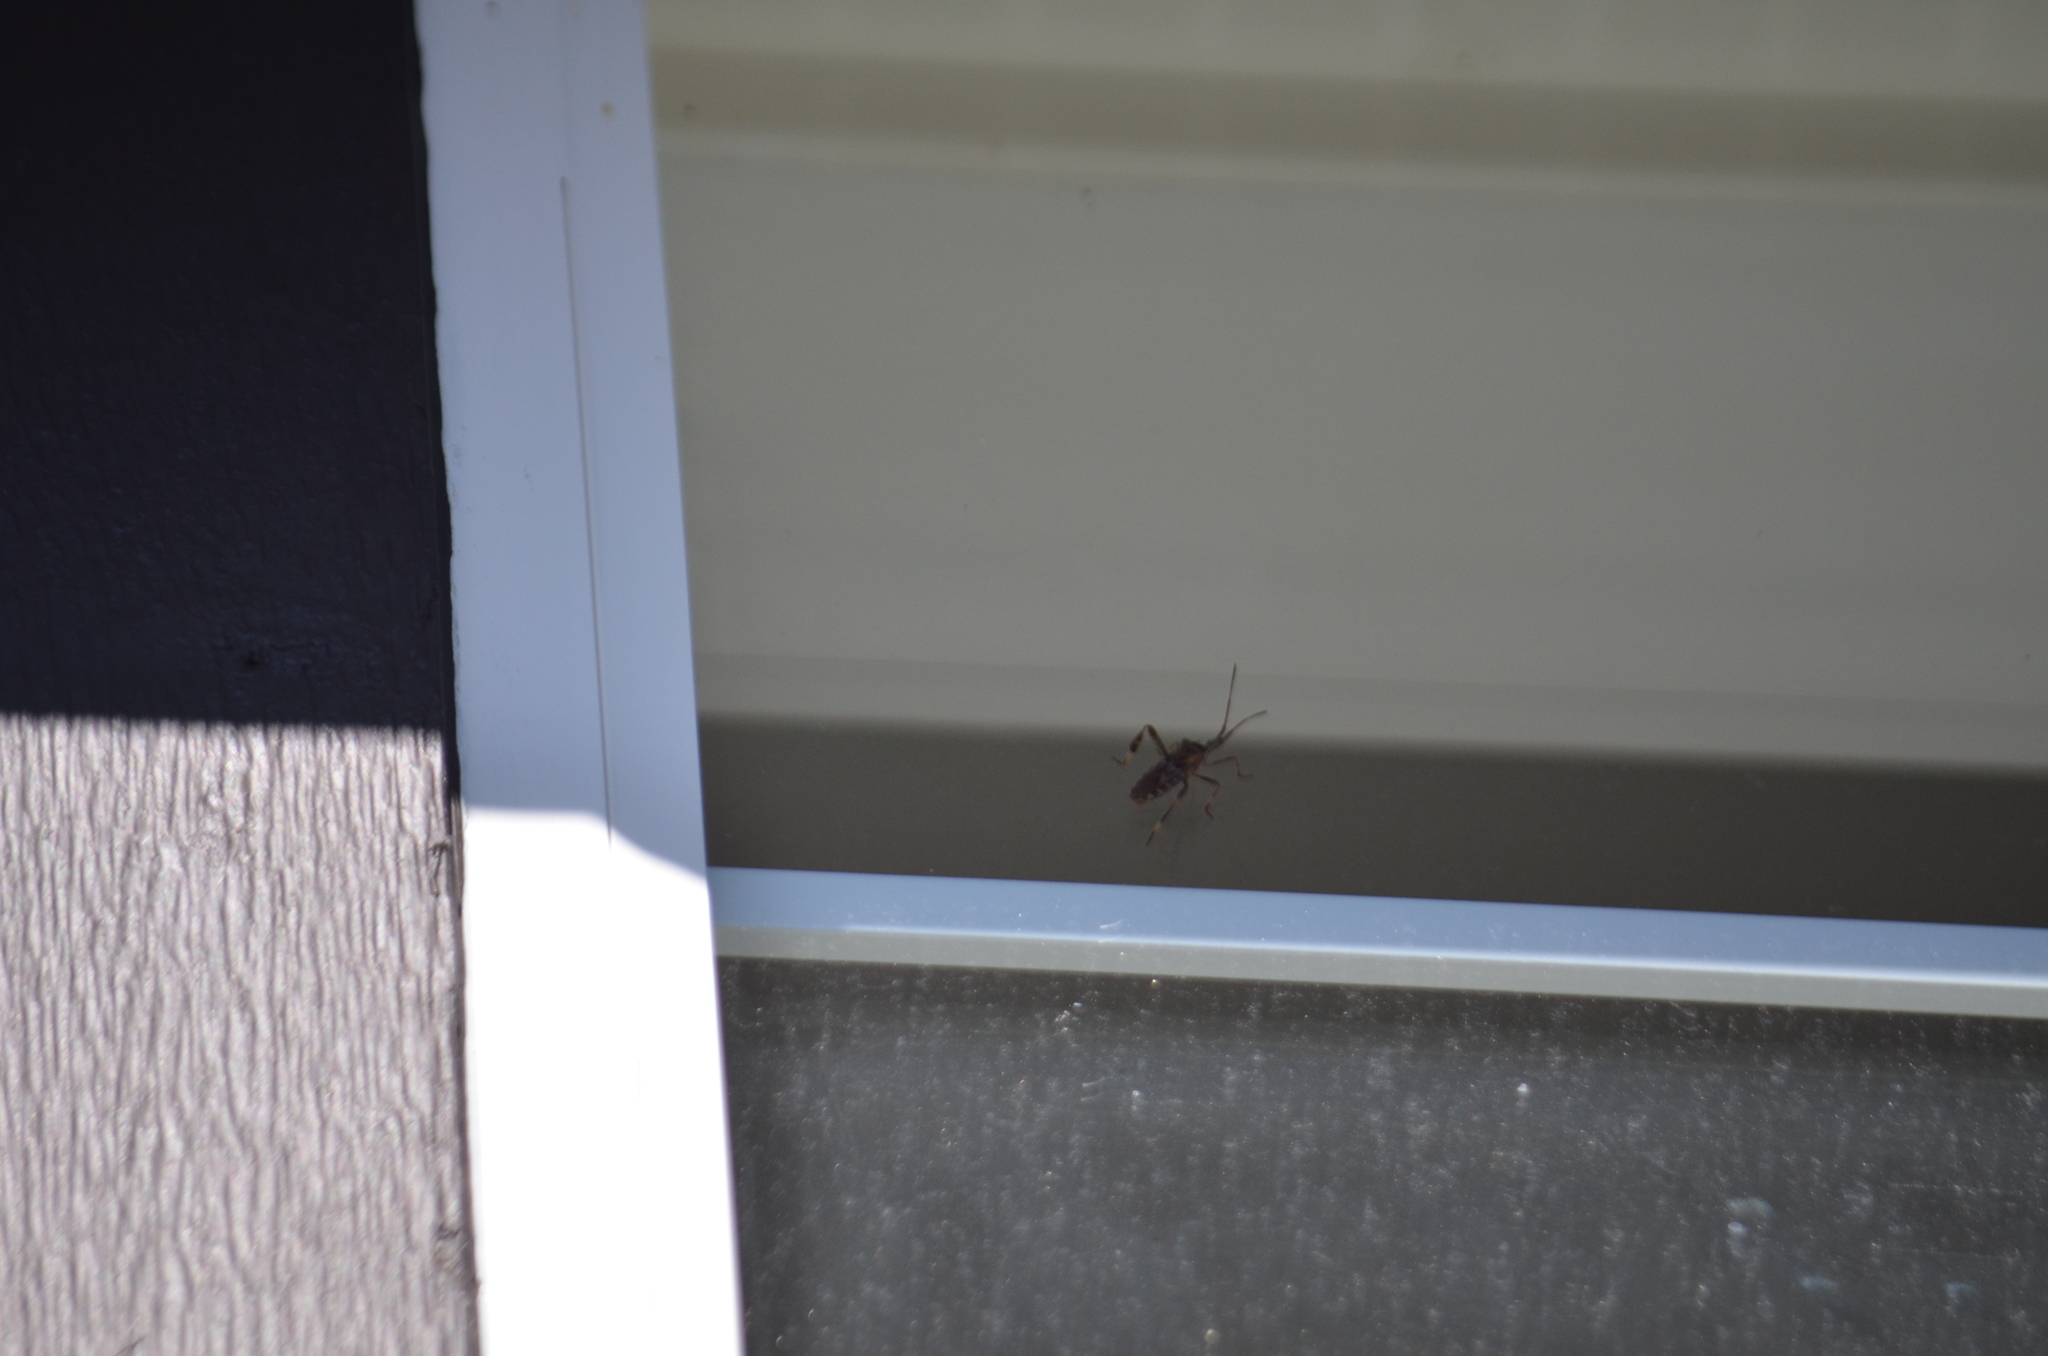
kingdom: Animalia
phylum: Arthropoda
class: Insecta
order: Hemiptera
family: Coreidae
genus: Leptoglossus
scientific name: Leptoglossus occidentalis
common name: Western conifer-seed bug
